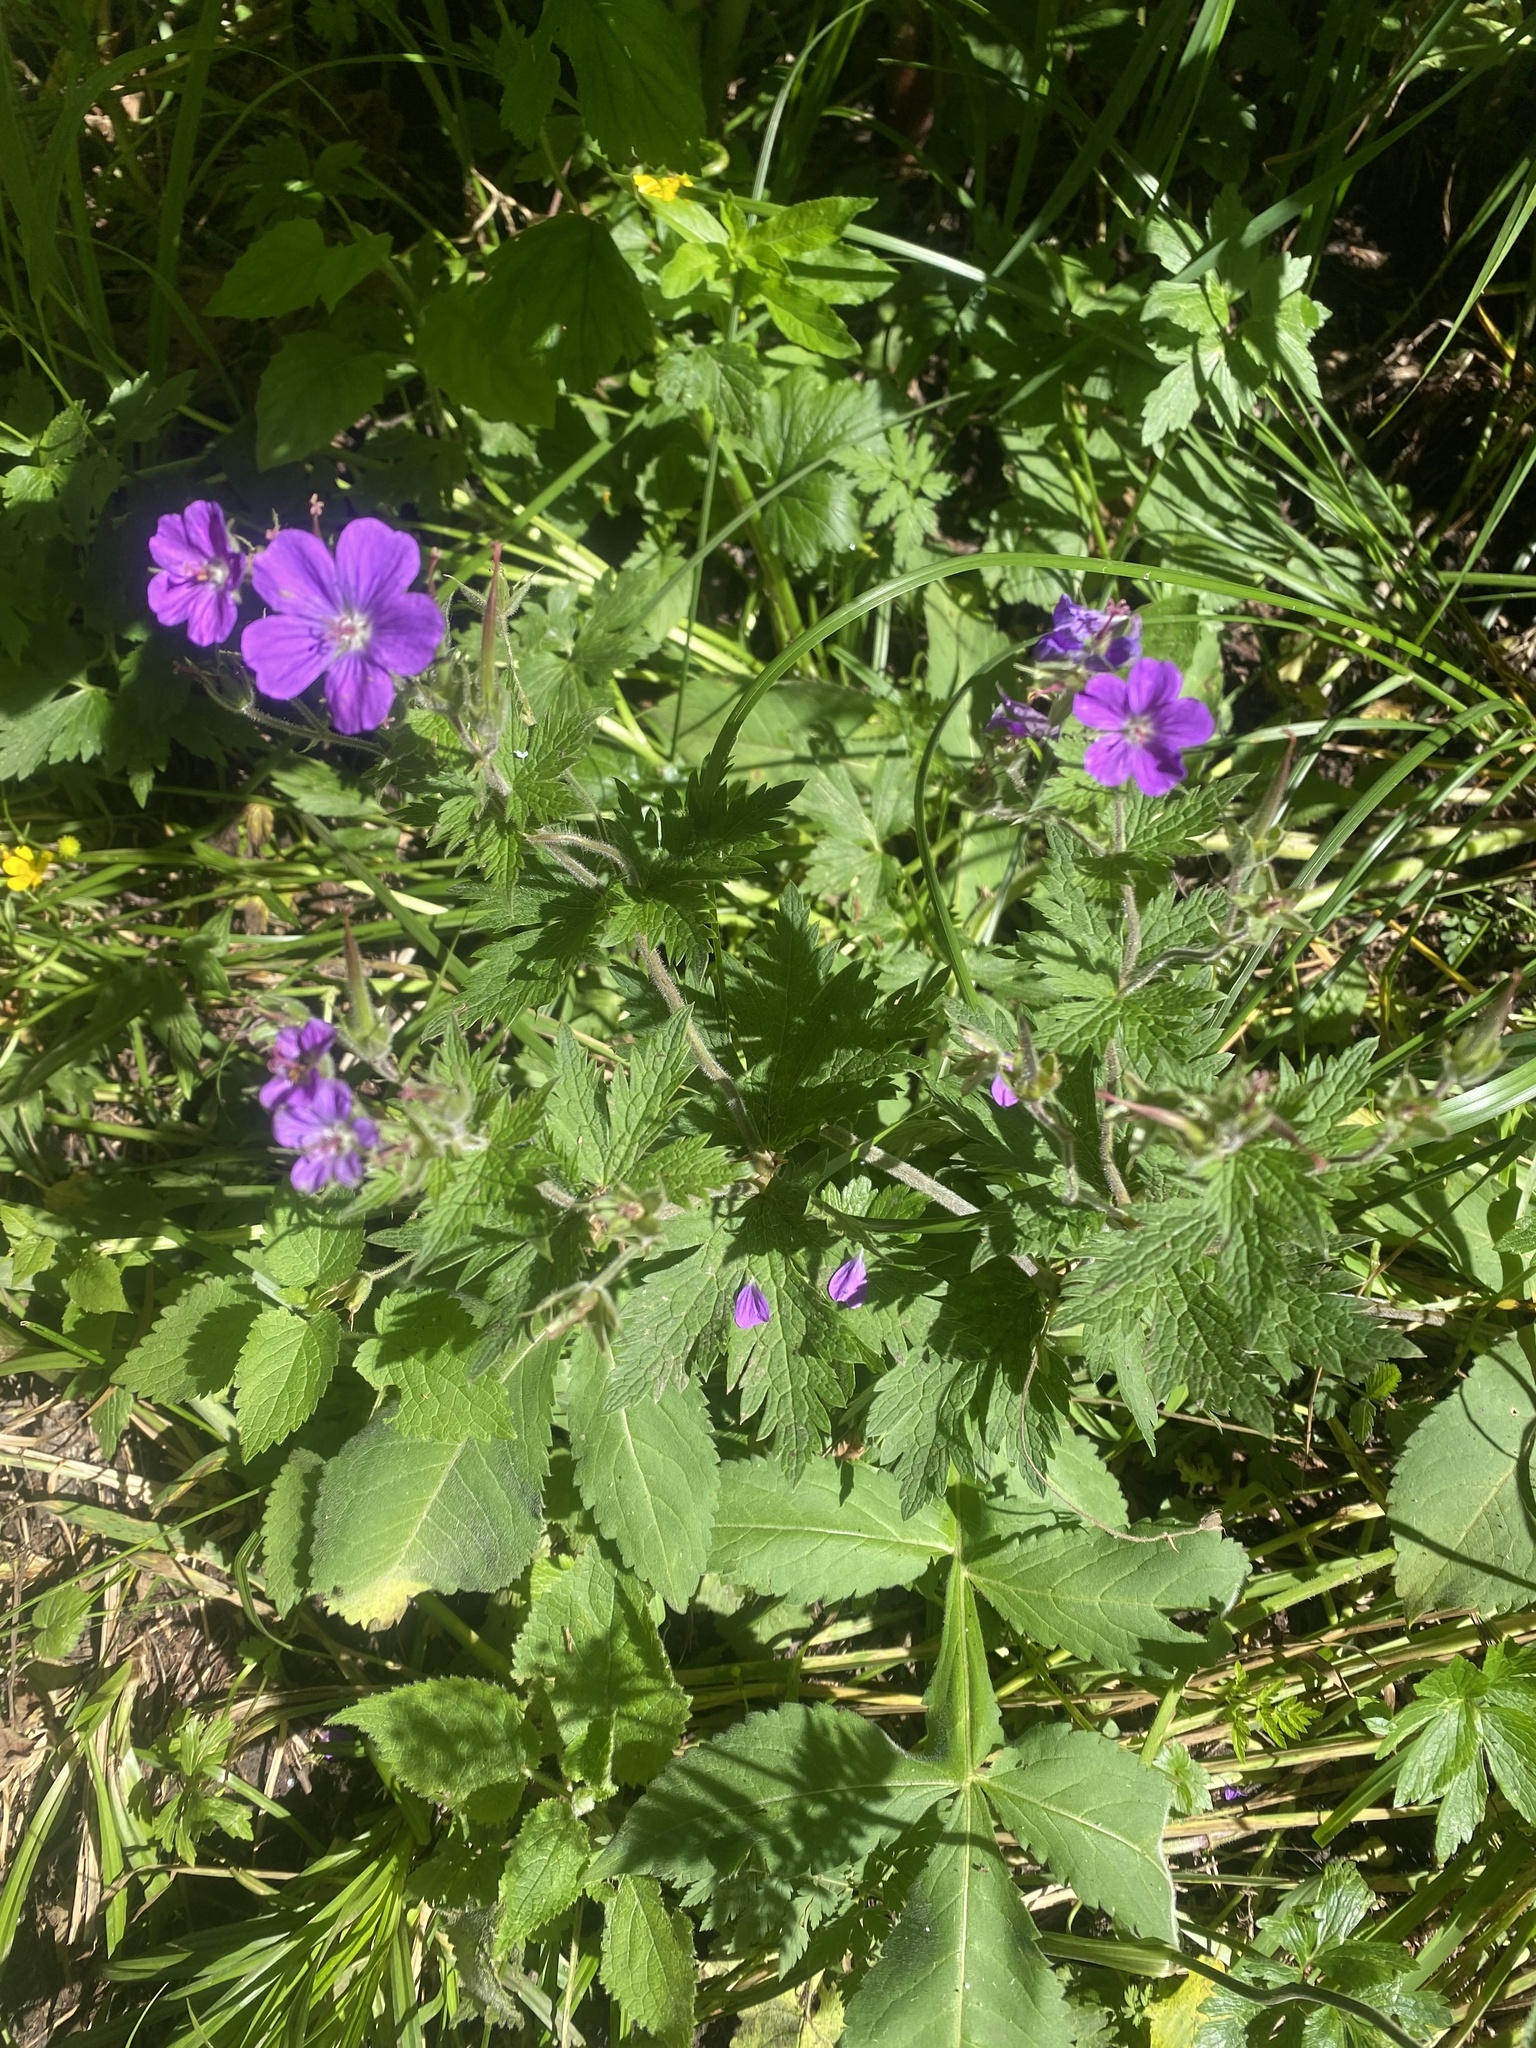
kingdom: Plantae
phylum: Tracheophyta
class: Magnoliopsida
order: Geraniales
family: Geraniaceae
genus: Geranium
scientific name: Geranium sylvaticum
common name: Wood crane's-bill
